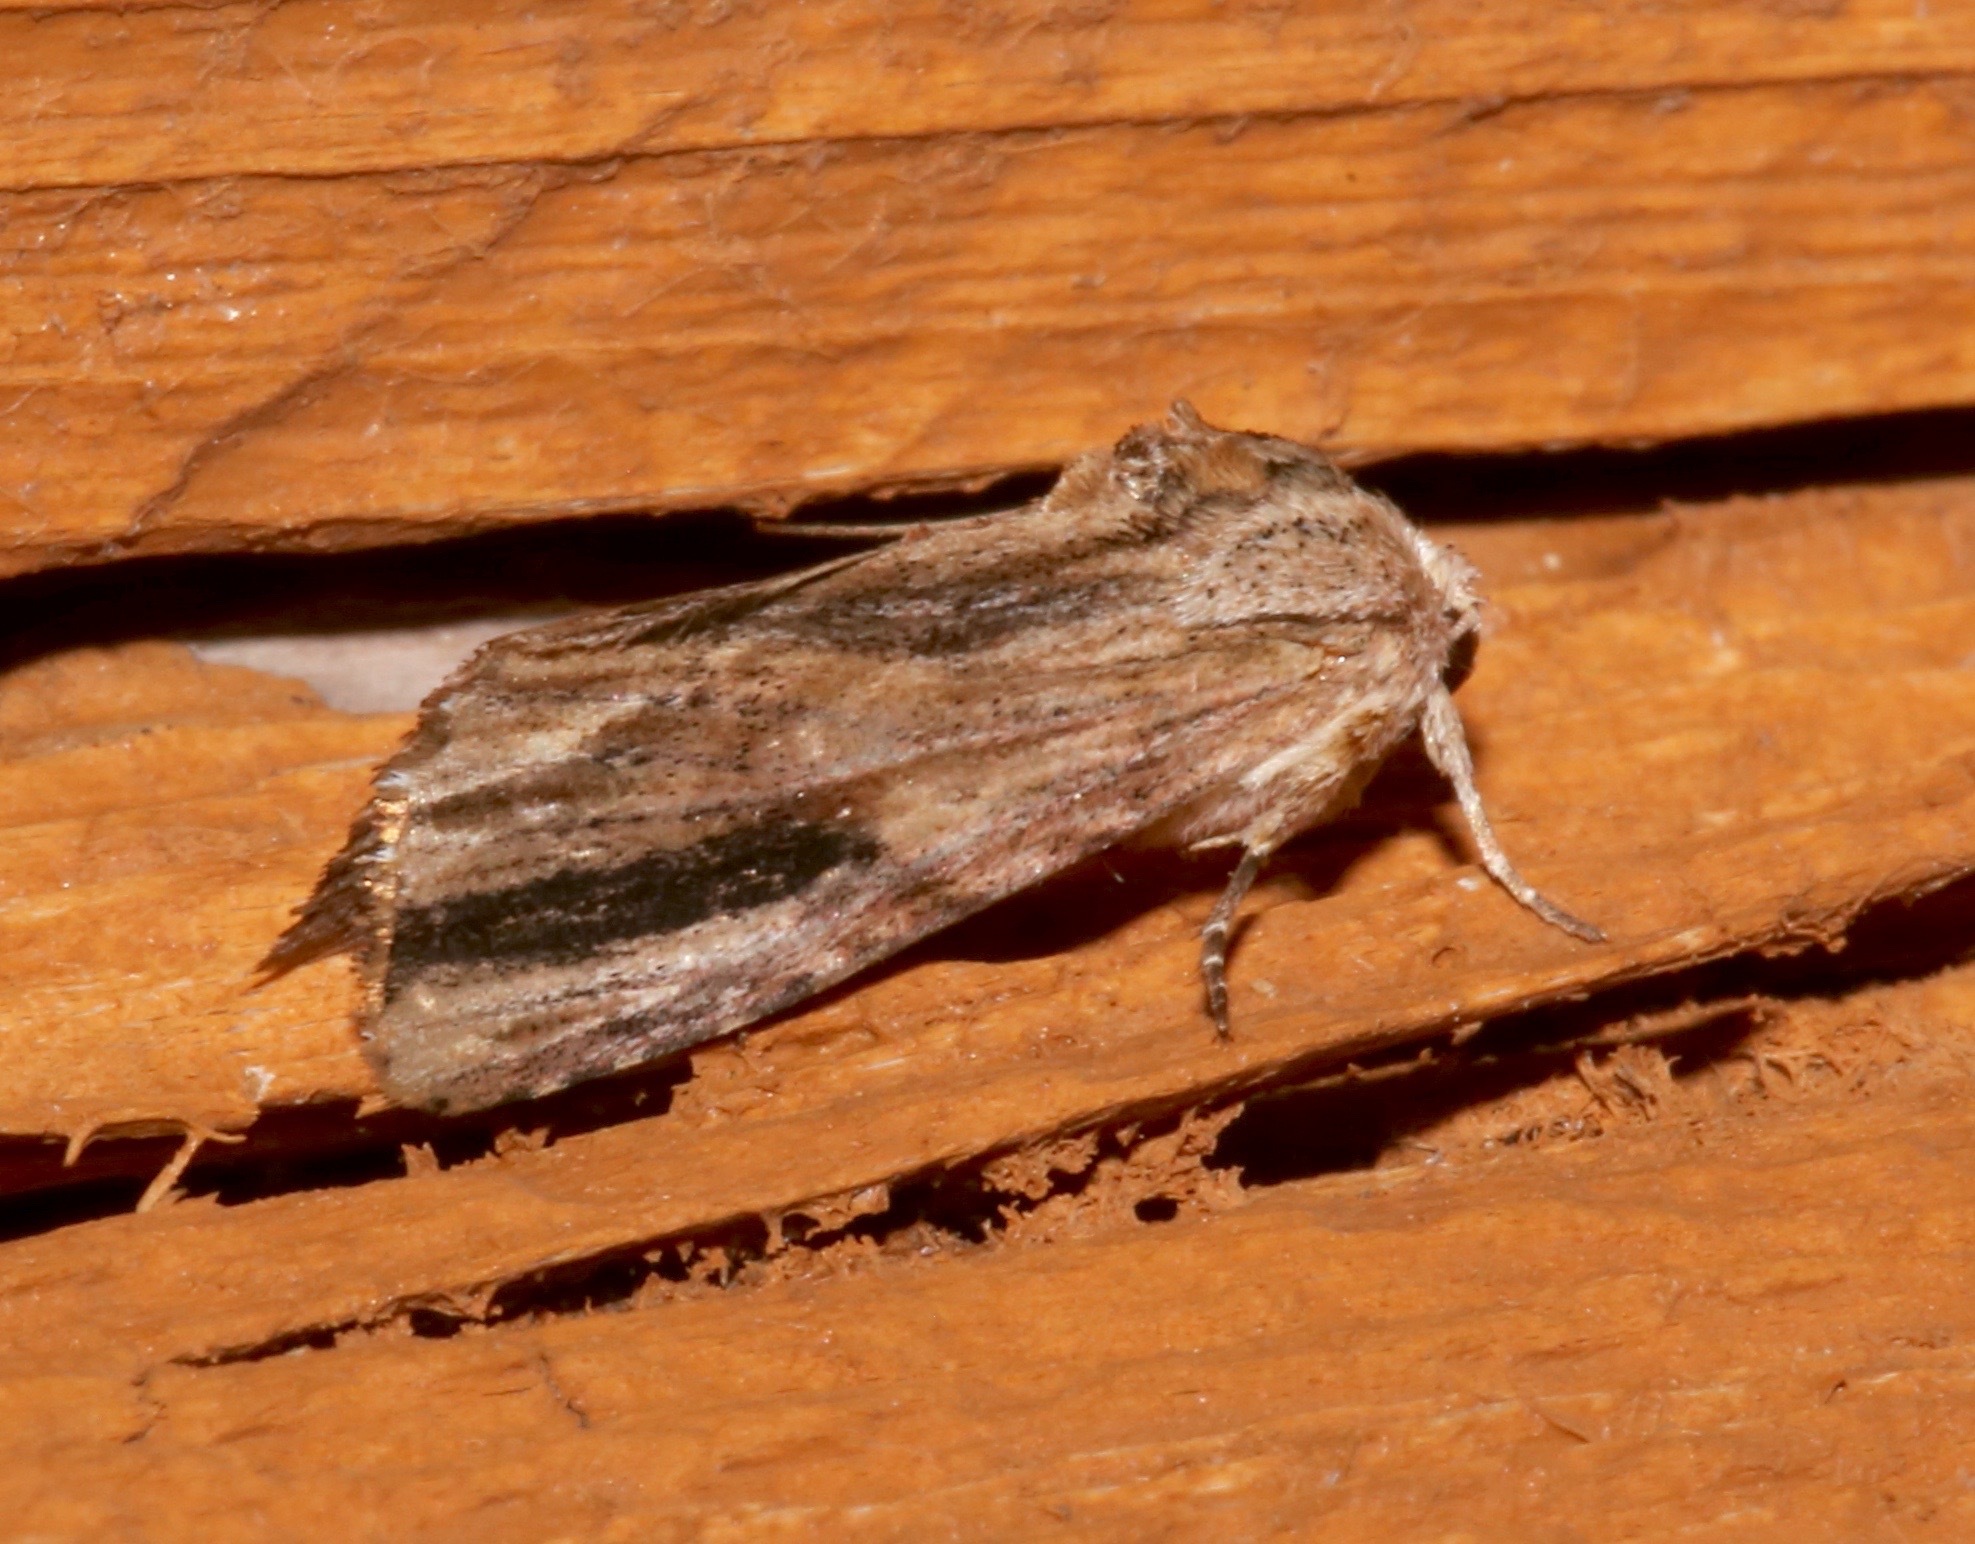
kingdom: Animalia
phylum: Arthropoda
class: Insecta
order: Lepidoptera
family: Noctuidae
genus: Spodoptera
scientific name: Spodoptera eridania
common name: Southern army worm
